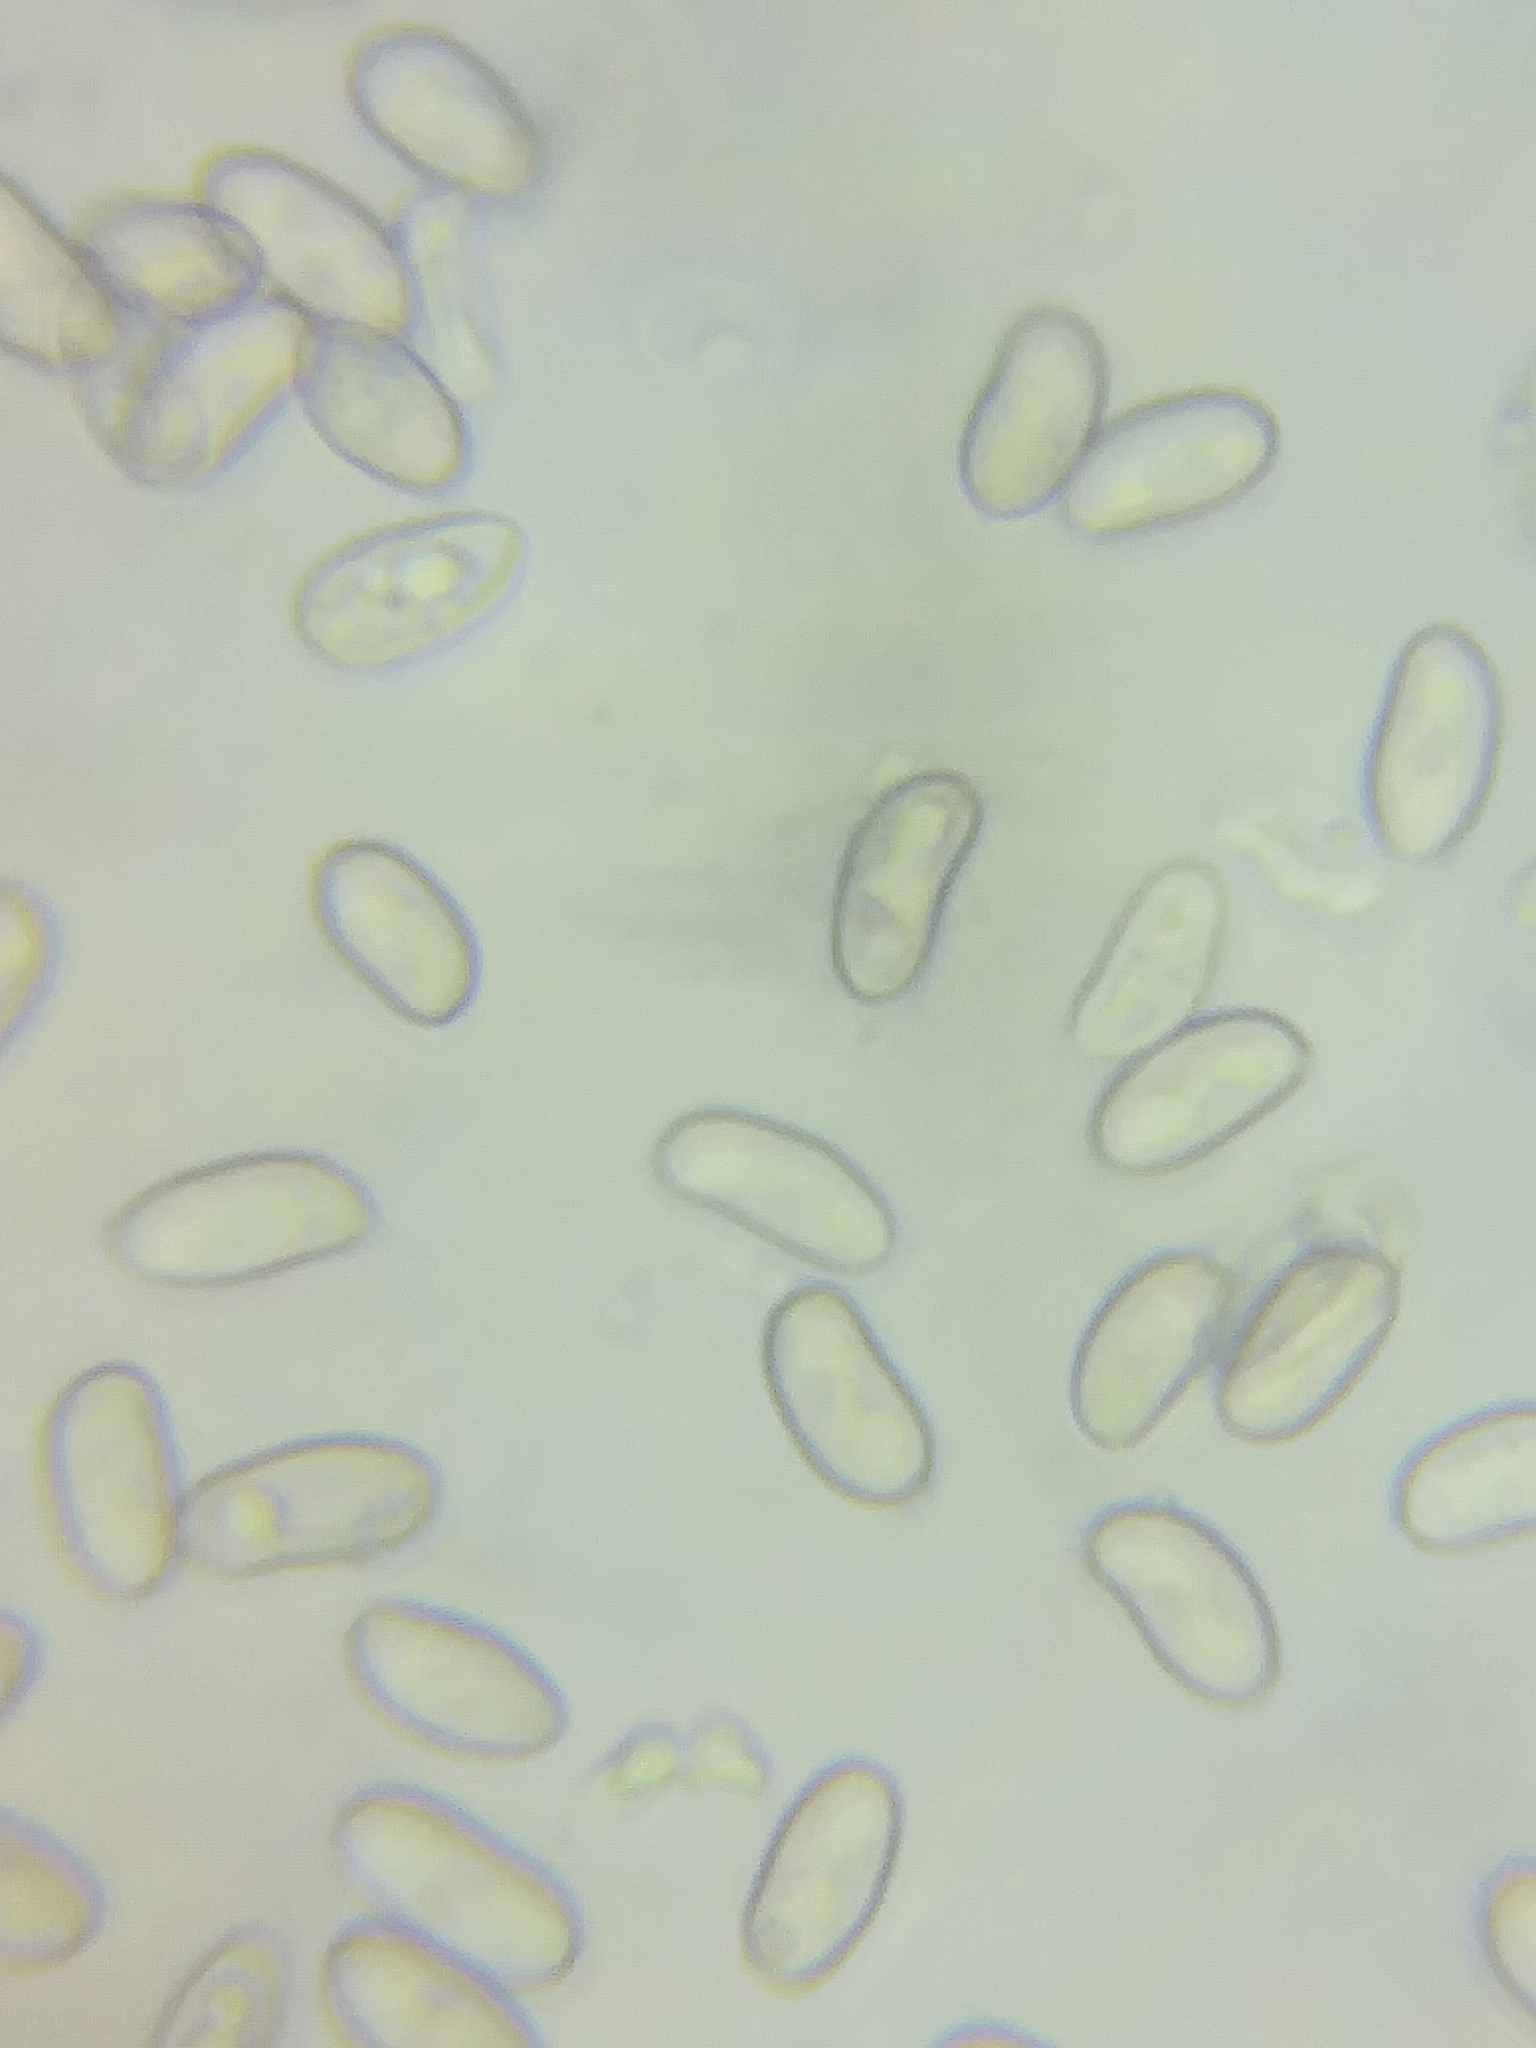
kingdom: Fungi
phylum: Basidiomycota
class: Agaricomycetes
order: Agaricales
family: Psathyrellaceae
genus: Homophron
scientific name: Homophron spadiceum
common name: Chestnut brittlestem
